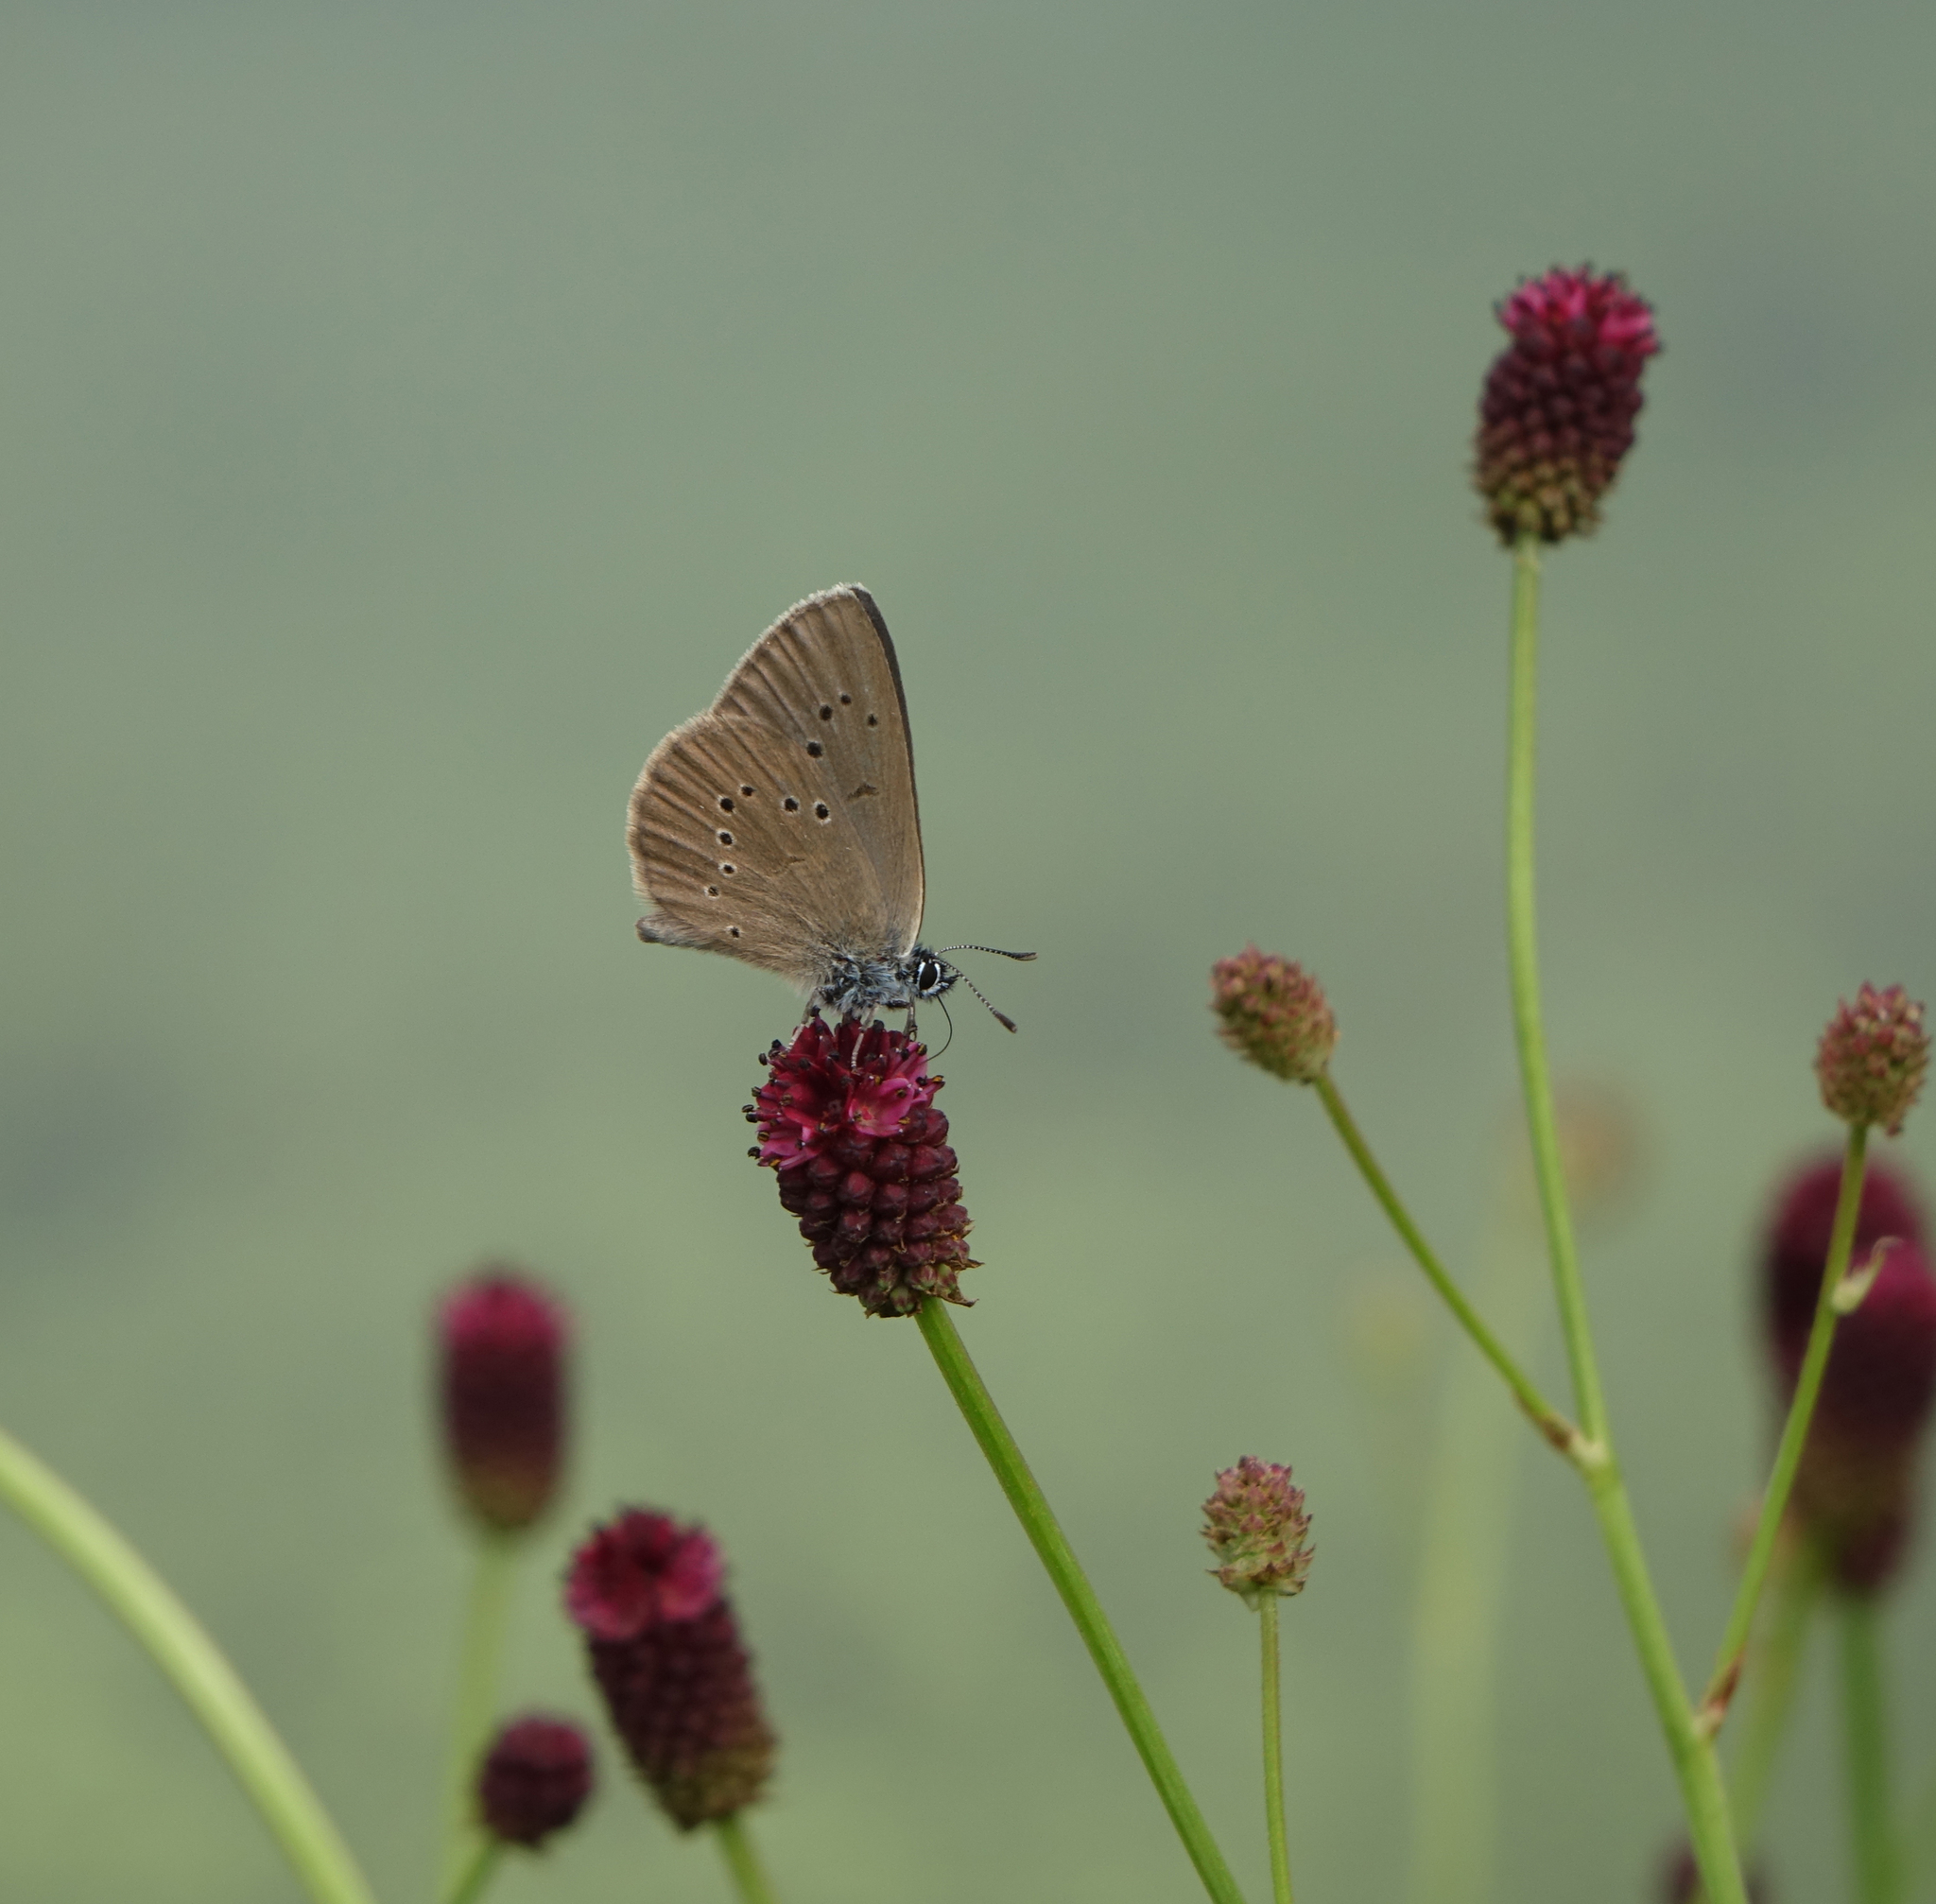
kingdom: Plantae
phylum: Tracheophyta
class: Magnoliopsida
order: Rosales
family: Rosaceae
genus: Sanguisorba
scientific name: Sanguisorba officinalis
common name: Great burnet
